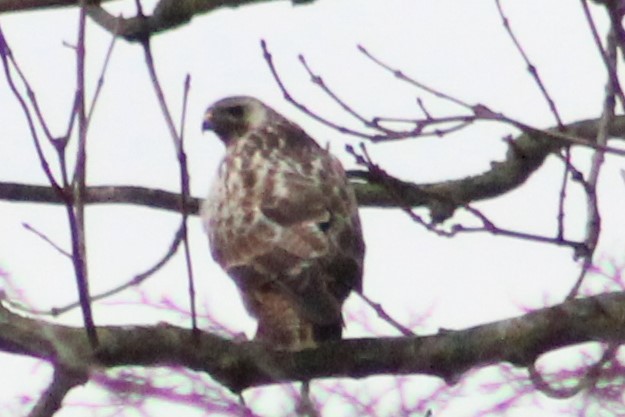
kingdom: Animalia
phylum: Chordata
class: Aves
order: Accipitriformes
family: Accipitridae
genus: Buteo
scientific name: Buteo buteo
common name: Common buzzard
